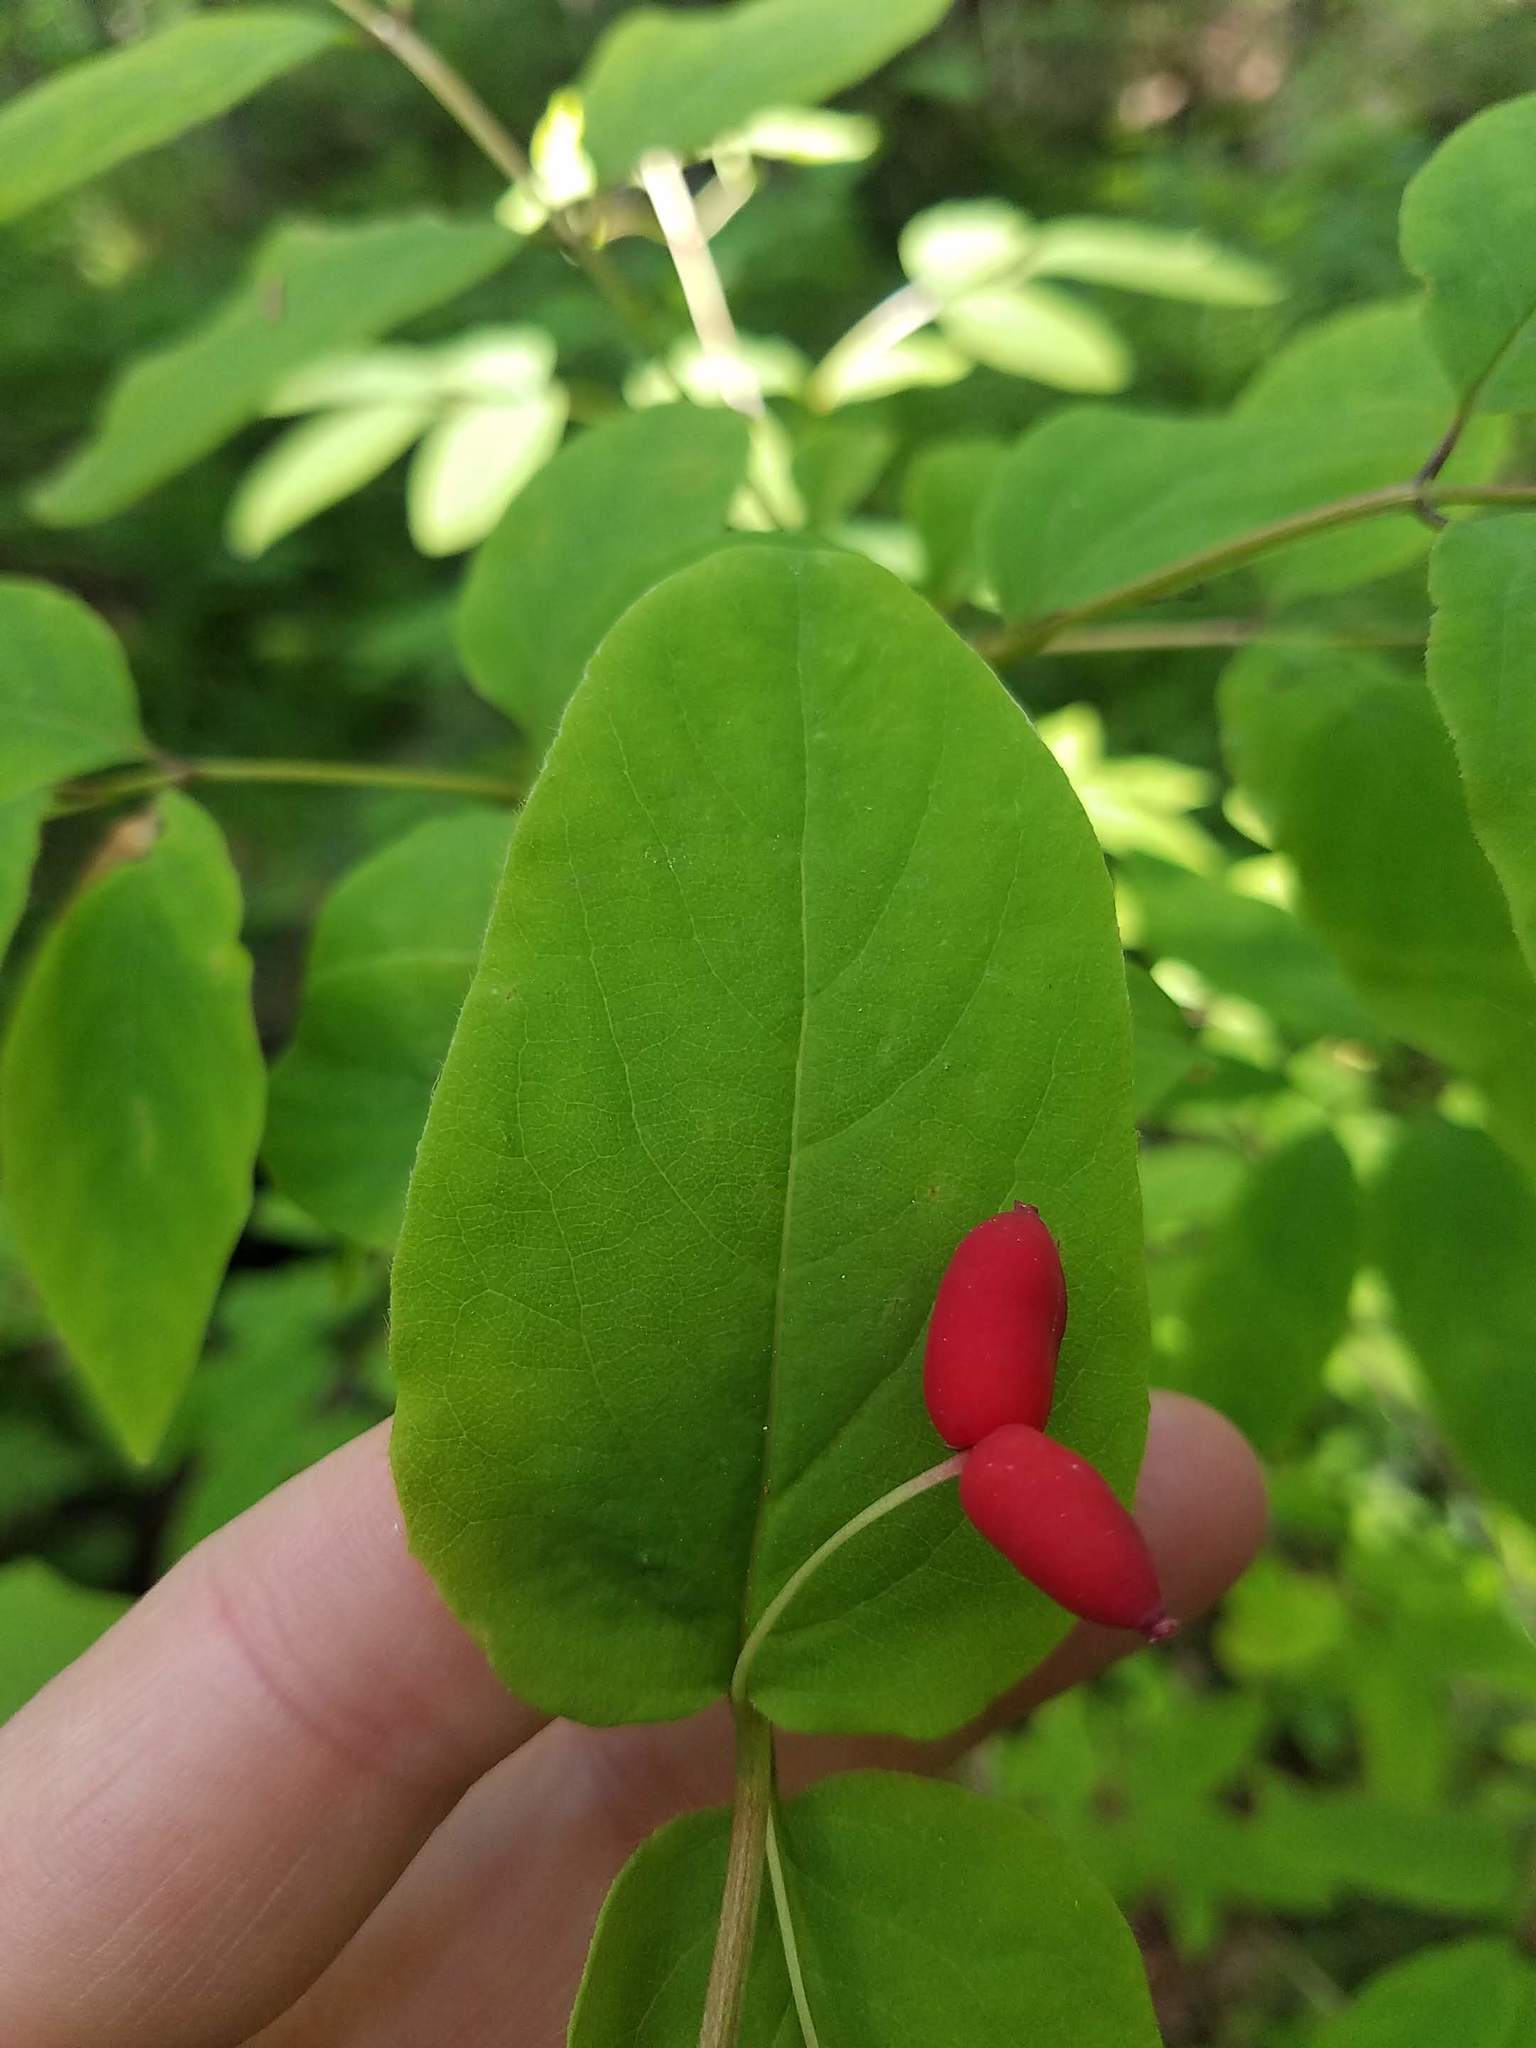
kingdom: Plantae
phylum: Tracheophyta
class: Magnoliopsida
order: Dipsacales
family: Caprifoliaceae
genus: Lonicera
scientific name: Lonicera canadensis
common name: American fly-honeysuckle
